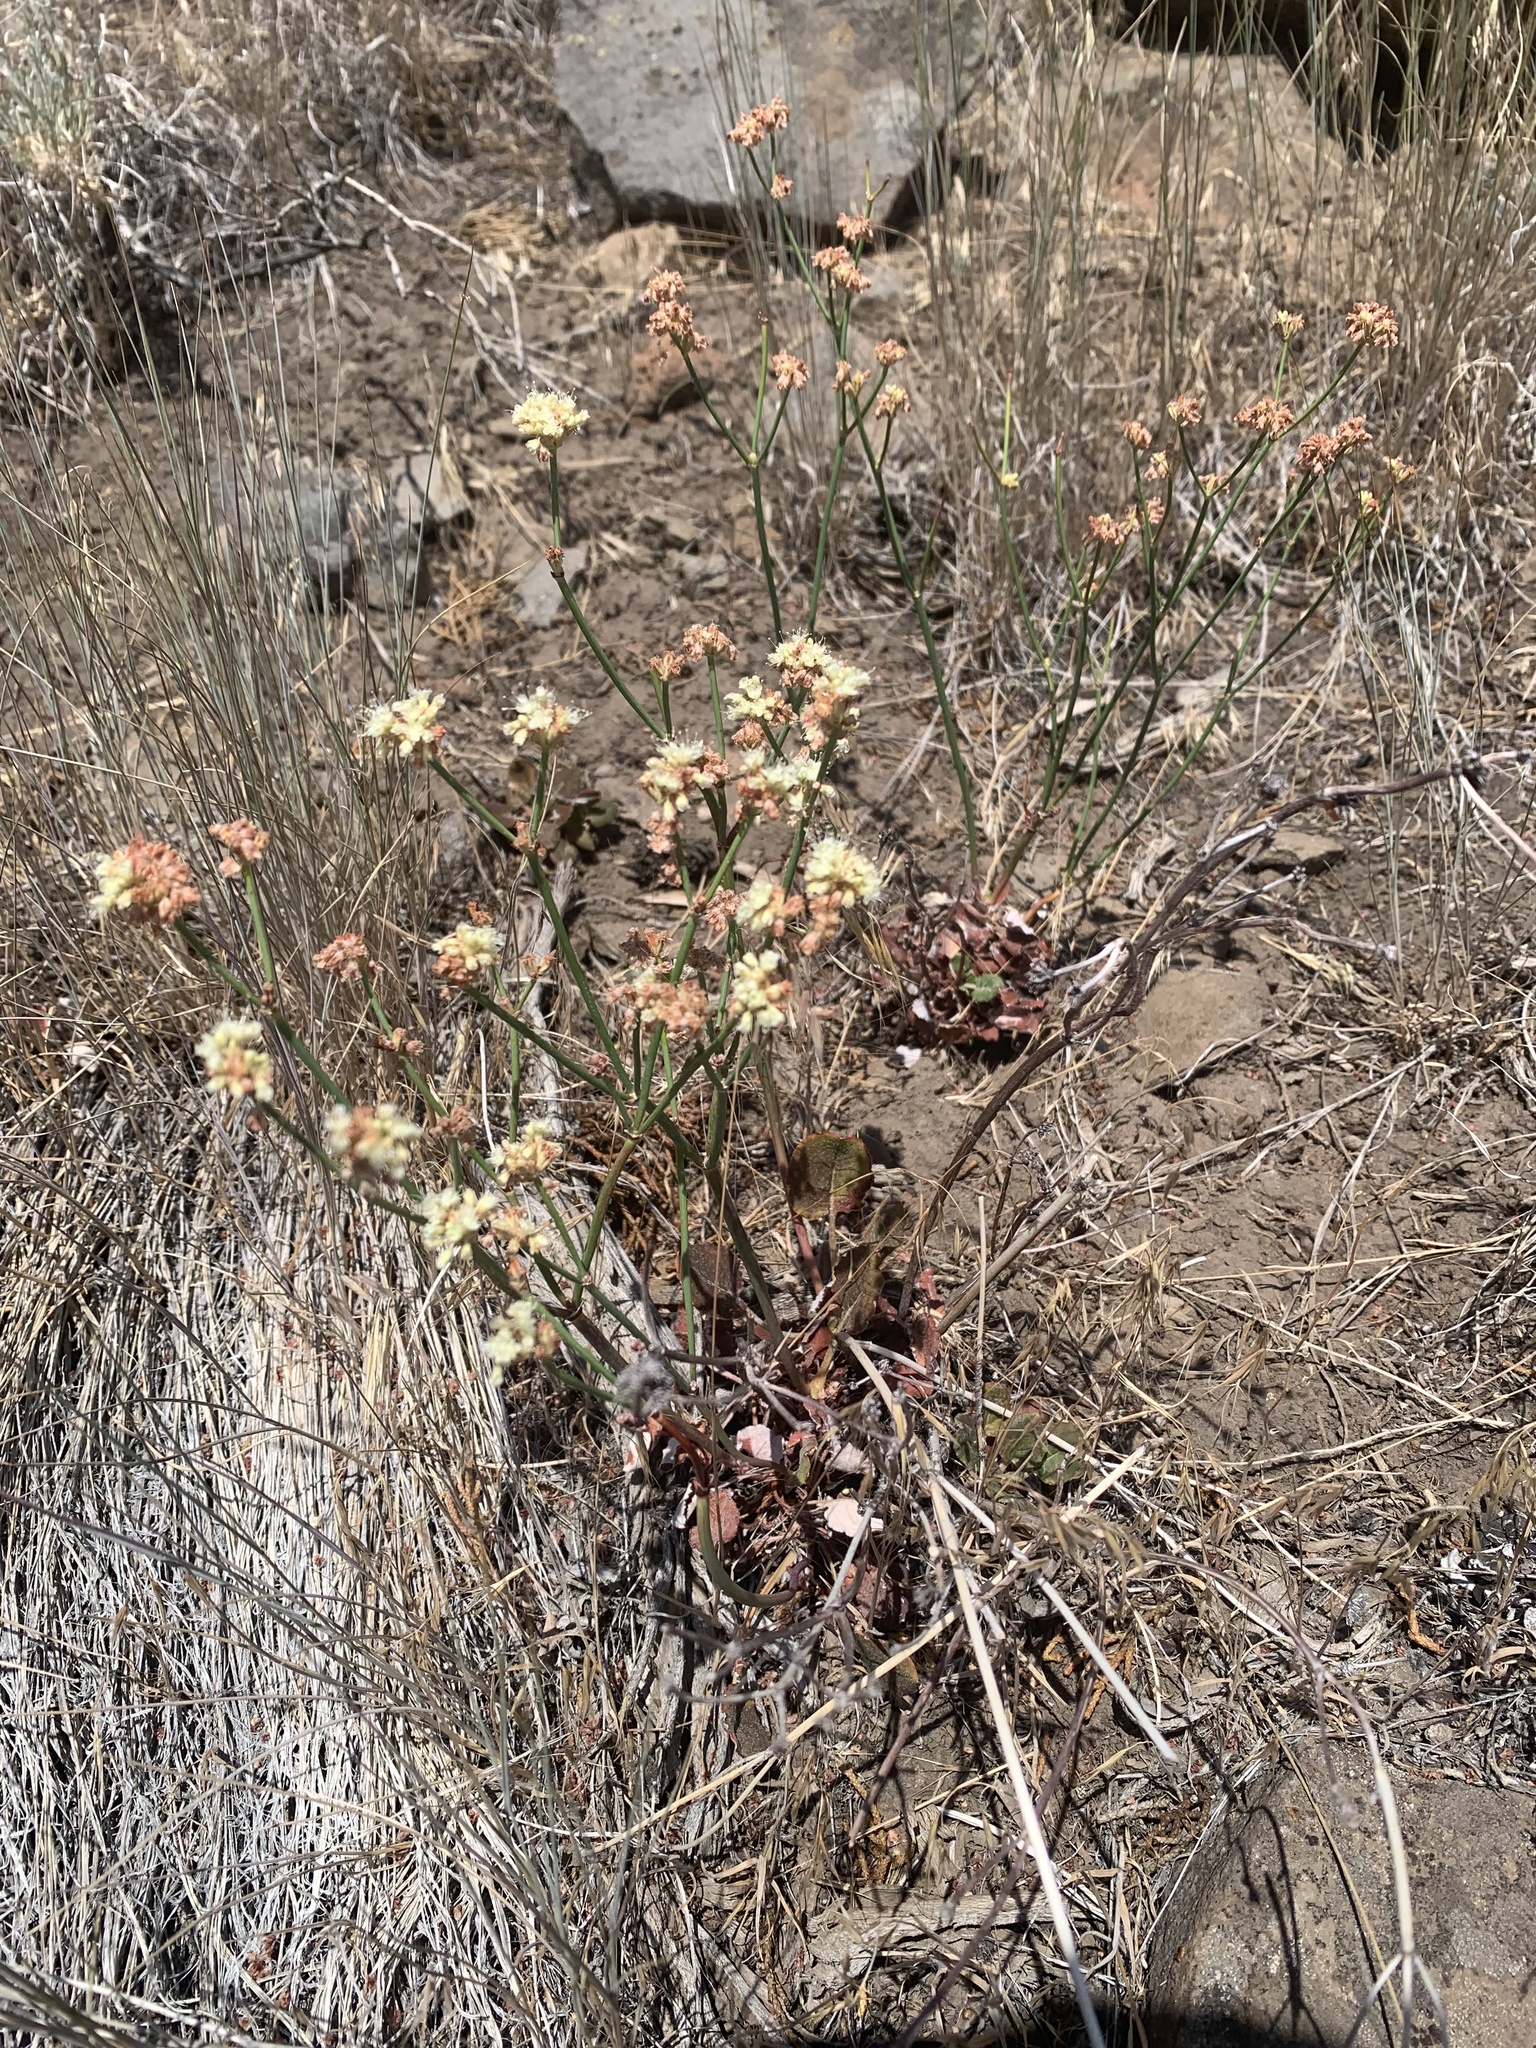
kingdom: Plantae
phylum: Tracheophyta
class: Magnoliopsida
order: Caryophyllales
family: Polygonaceae
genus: Eriogonum
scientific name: Eriogonum nudum
